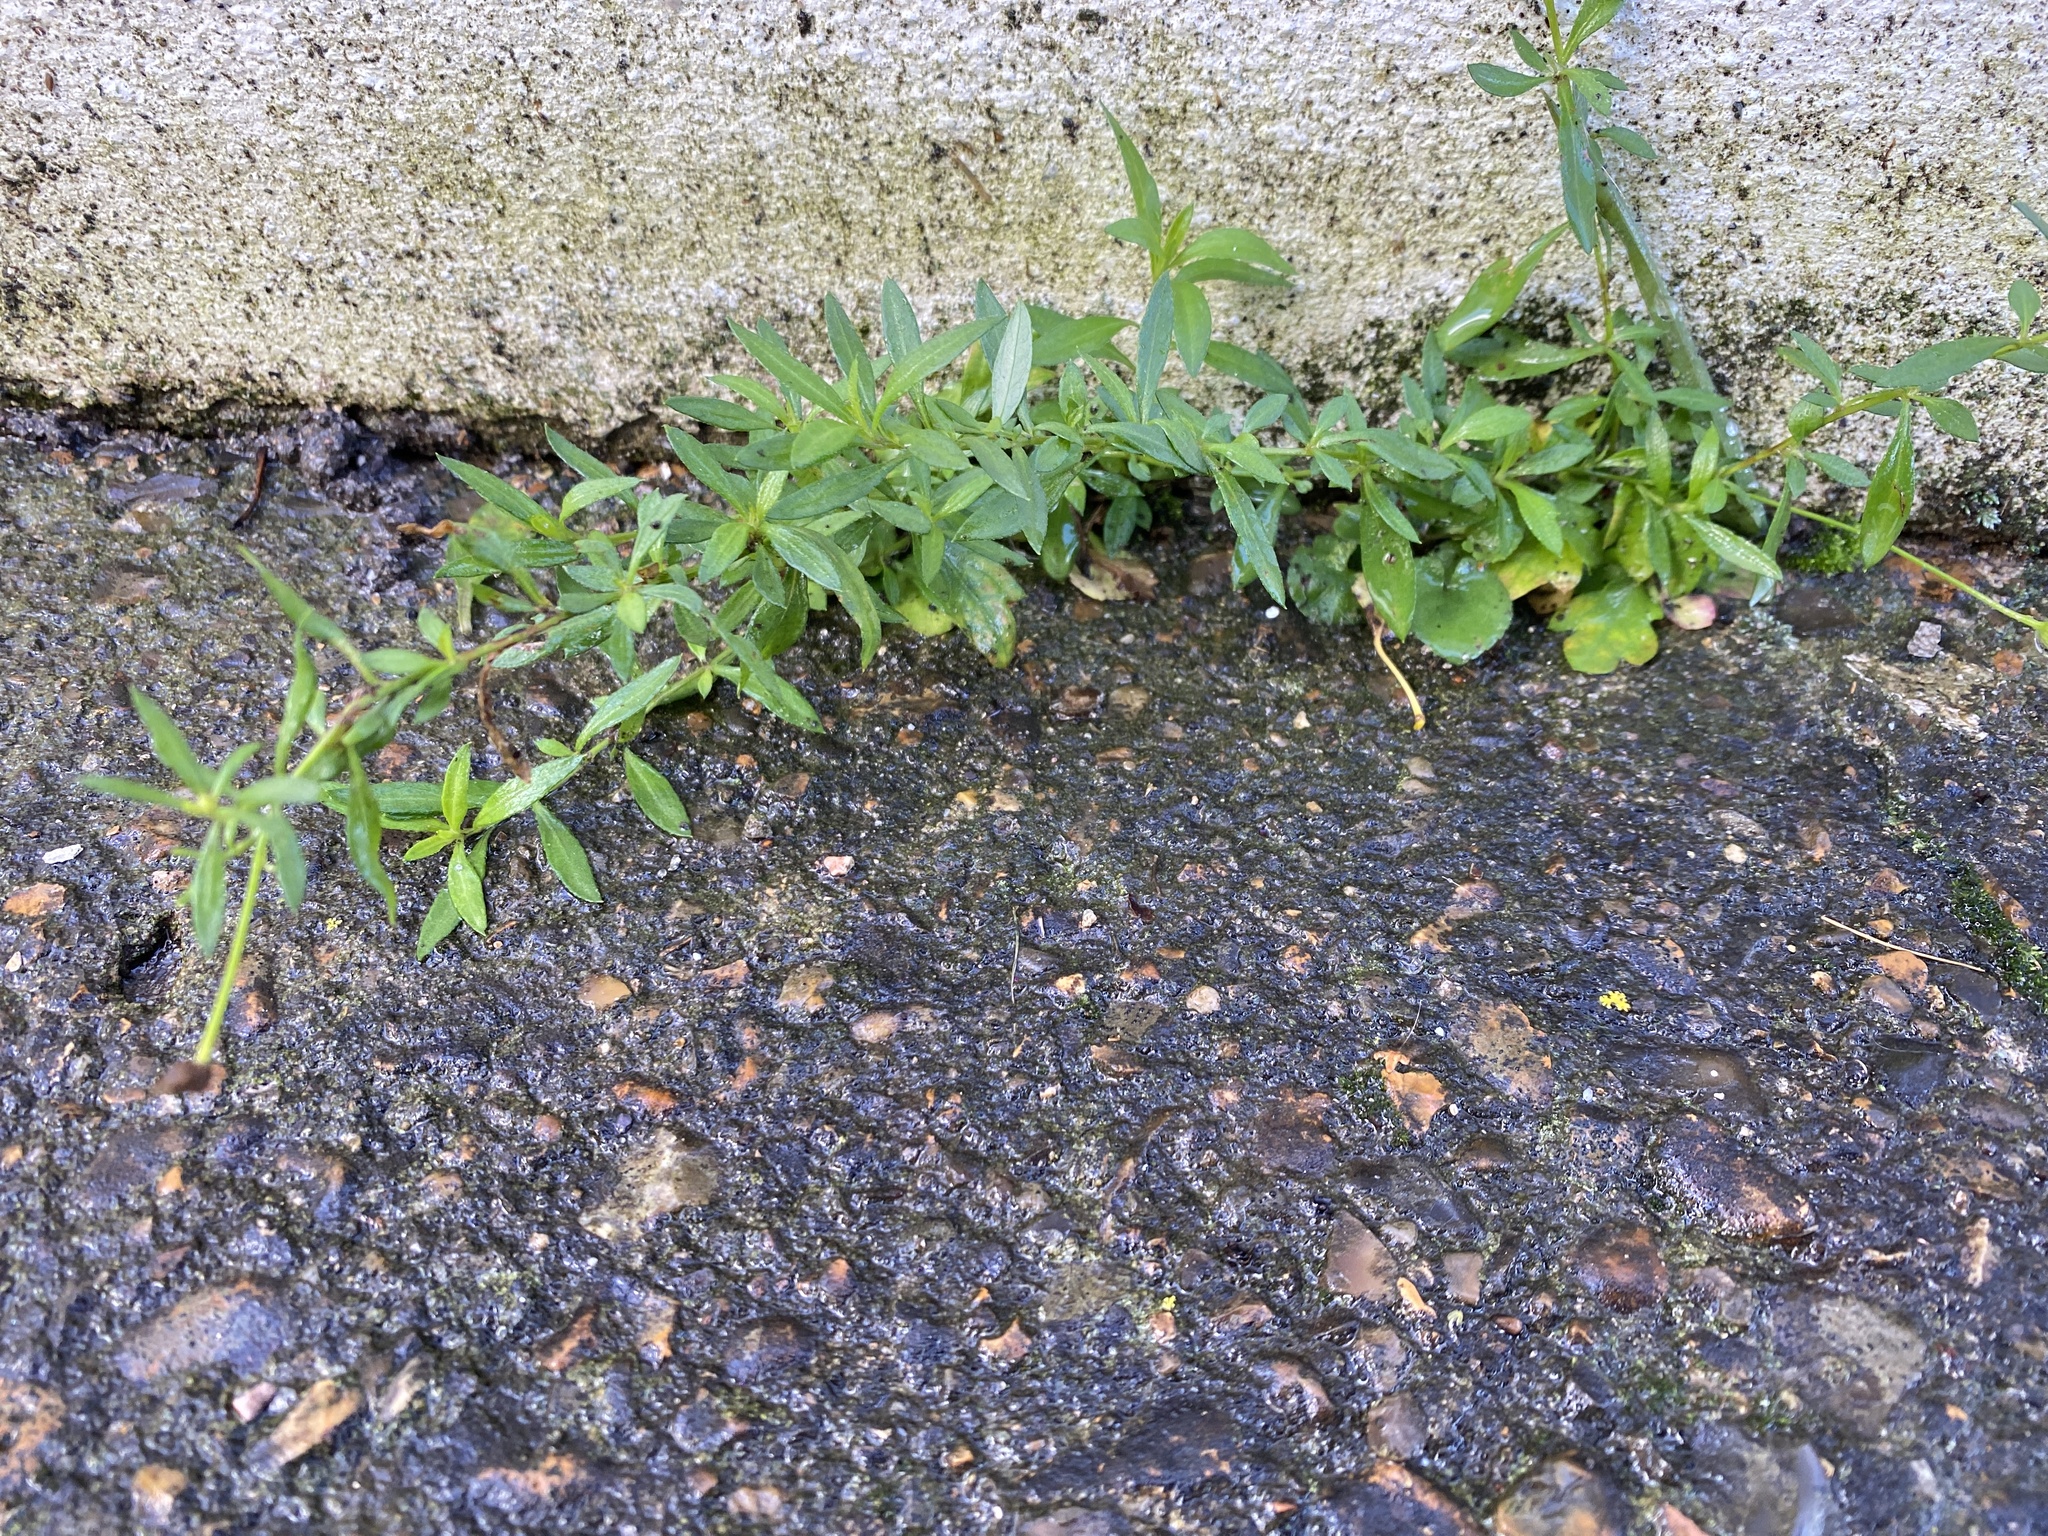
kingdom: Plantae
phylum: Tracheophyta
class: Magnoliopsida
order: Asterales
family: Asteraceae
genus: Erigeron
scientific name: Erigeron karvinskianus
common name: Mexican fleabane
